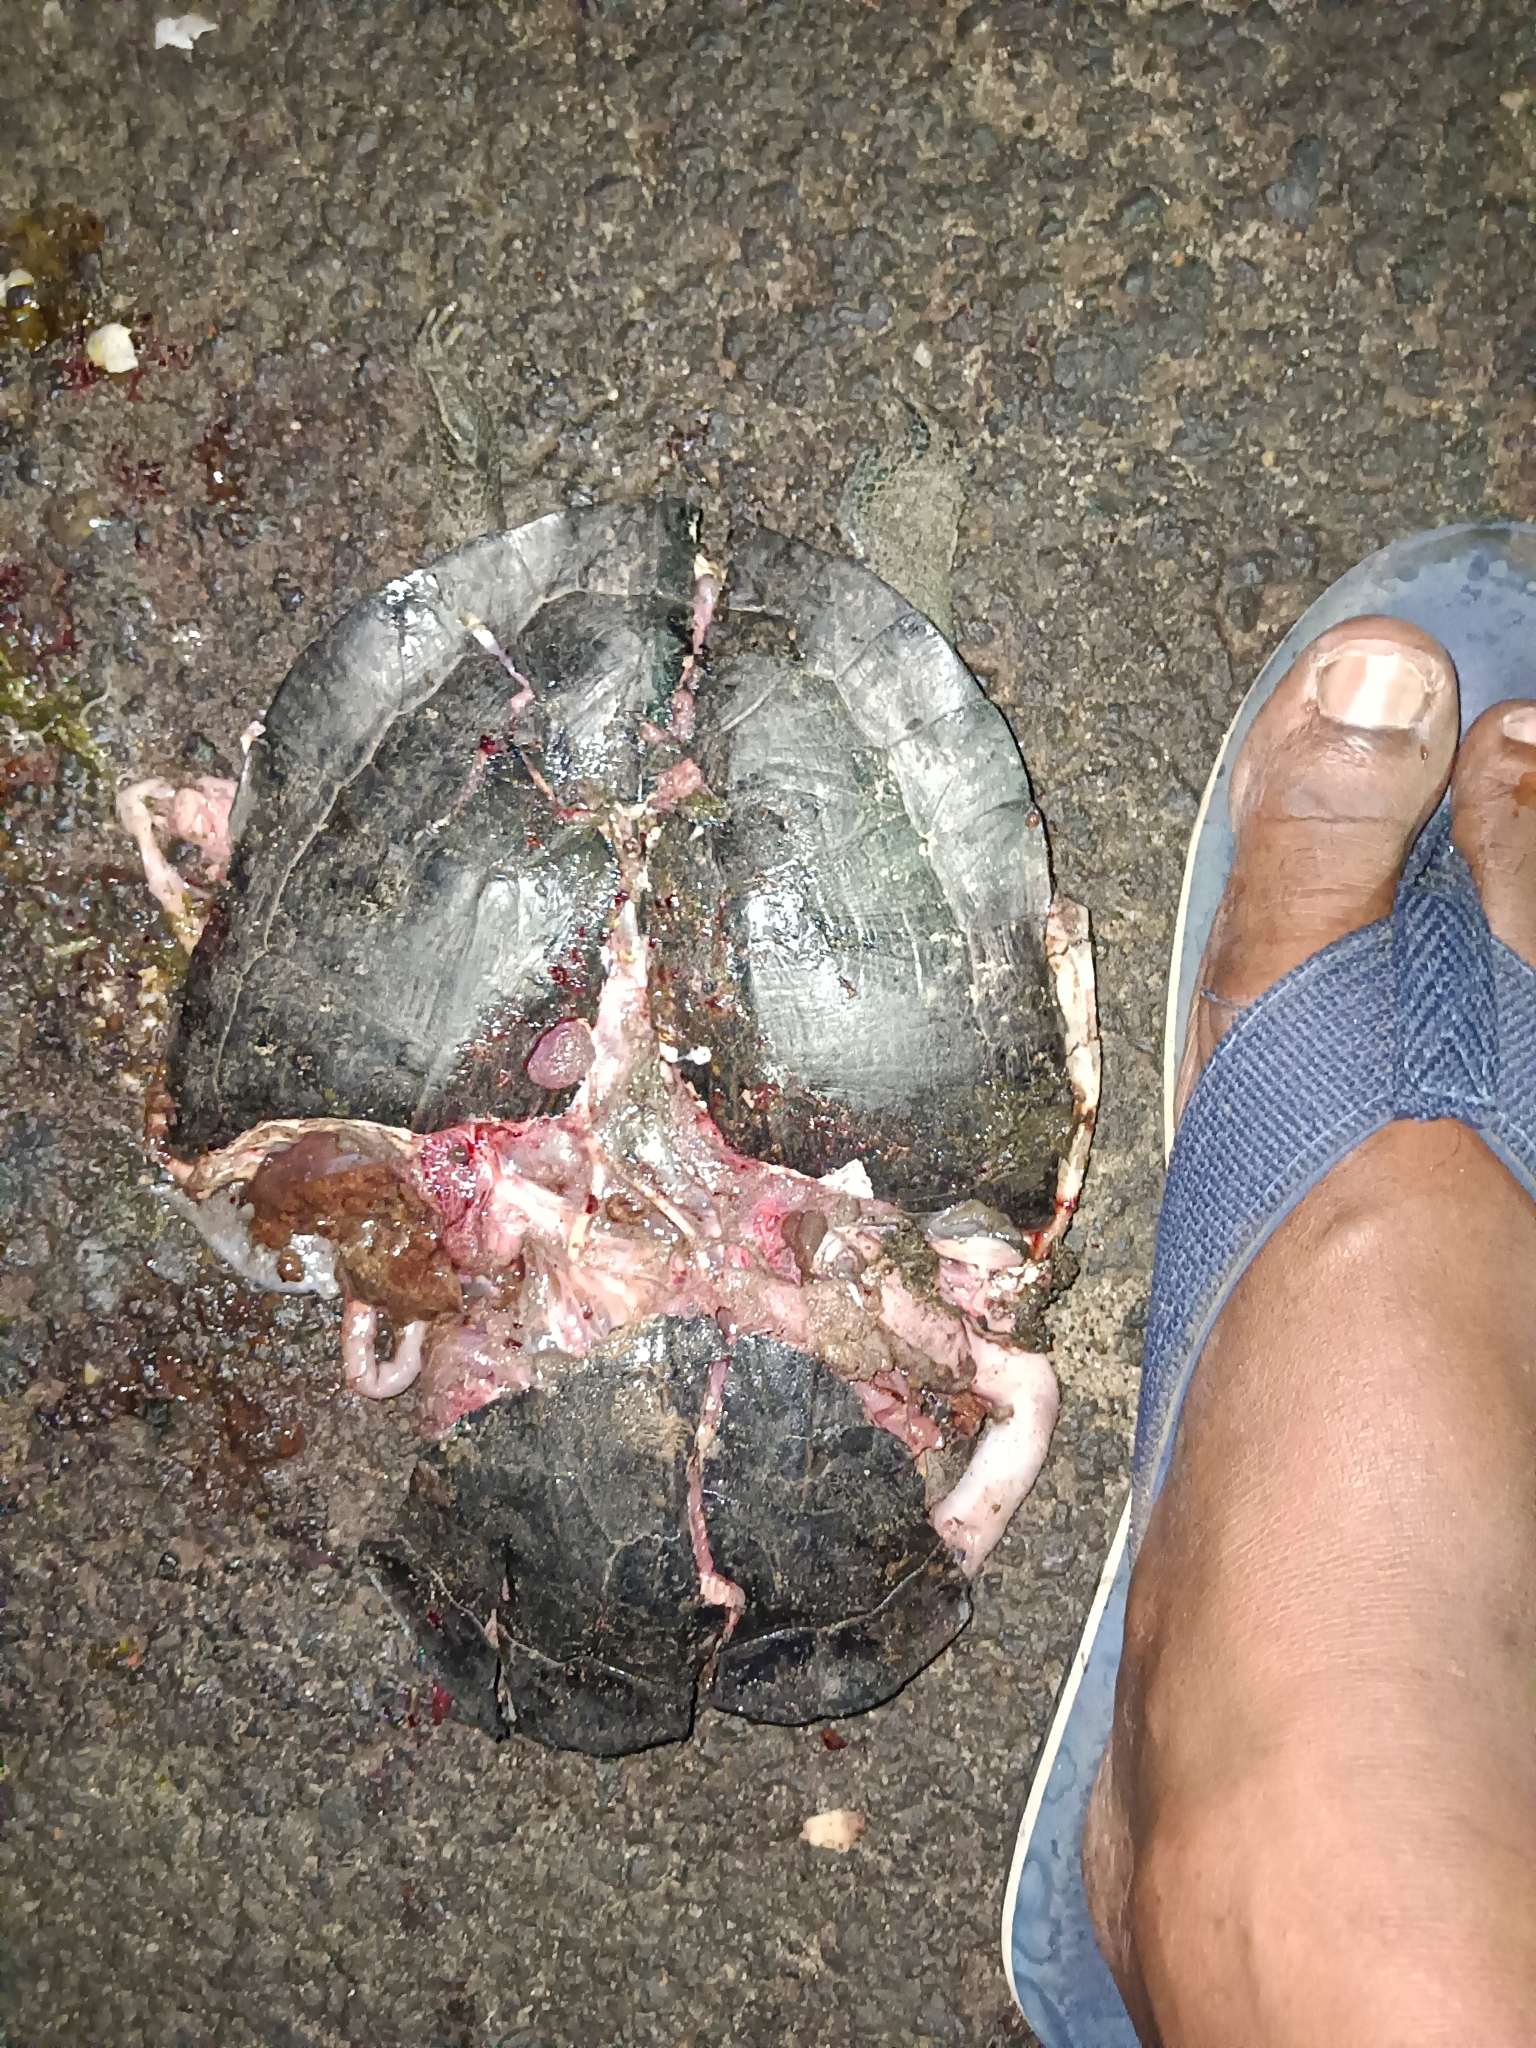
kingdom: Animalia
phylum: Chordata
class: Testudines
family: Geoemydidae
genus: Melanochelys
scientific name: Melanochelys trijuga
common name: Indian black turtle
